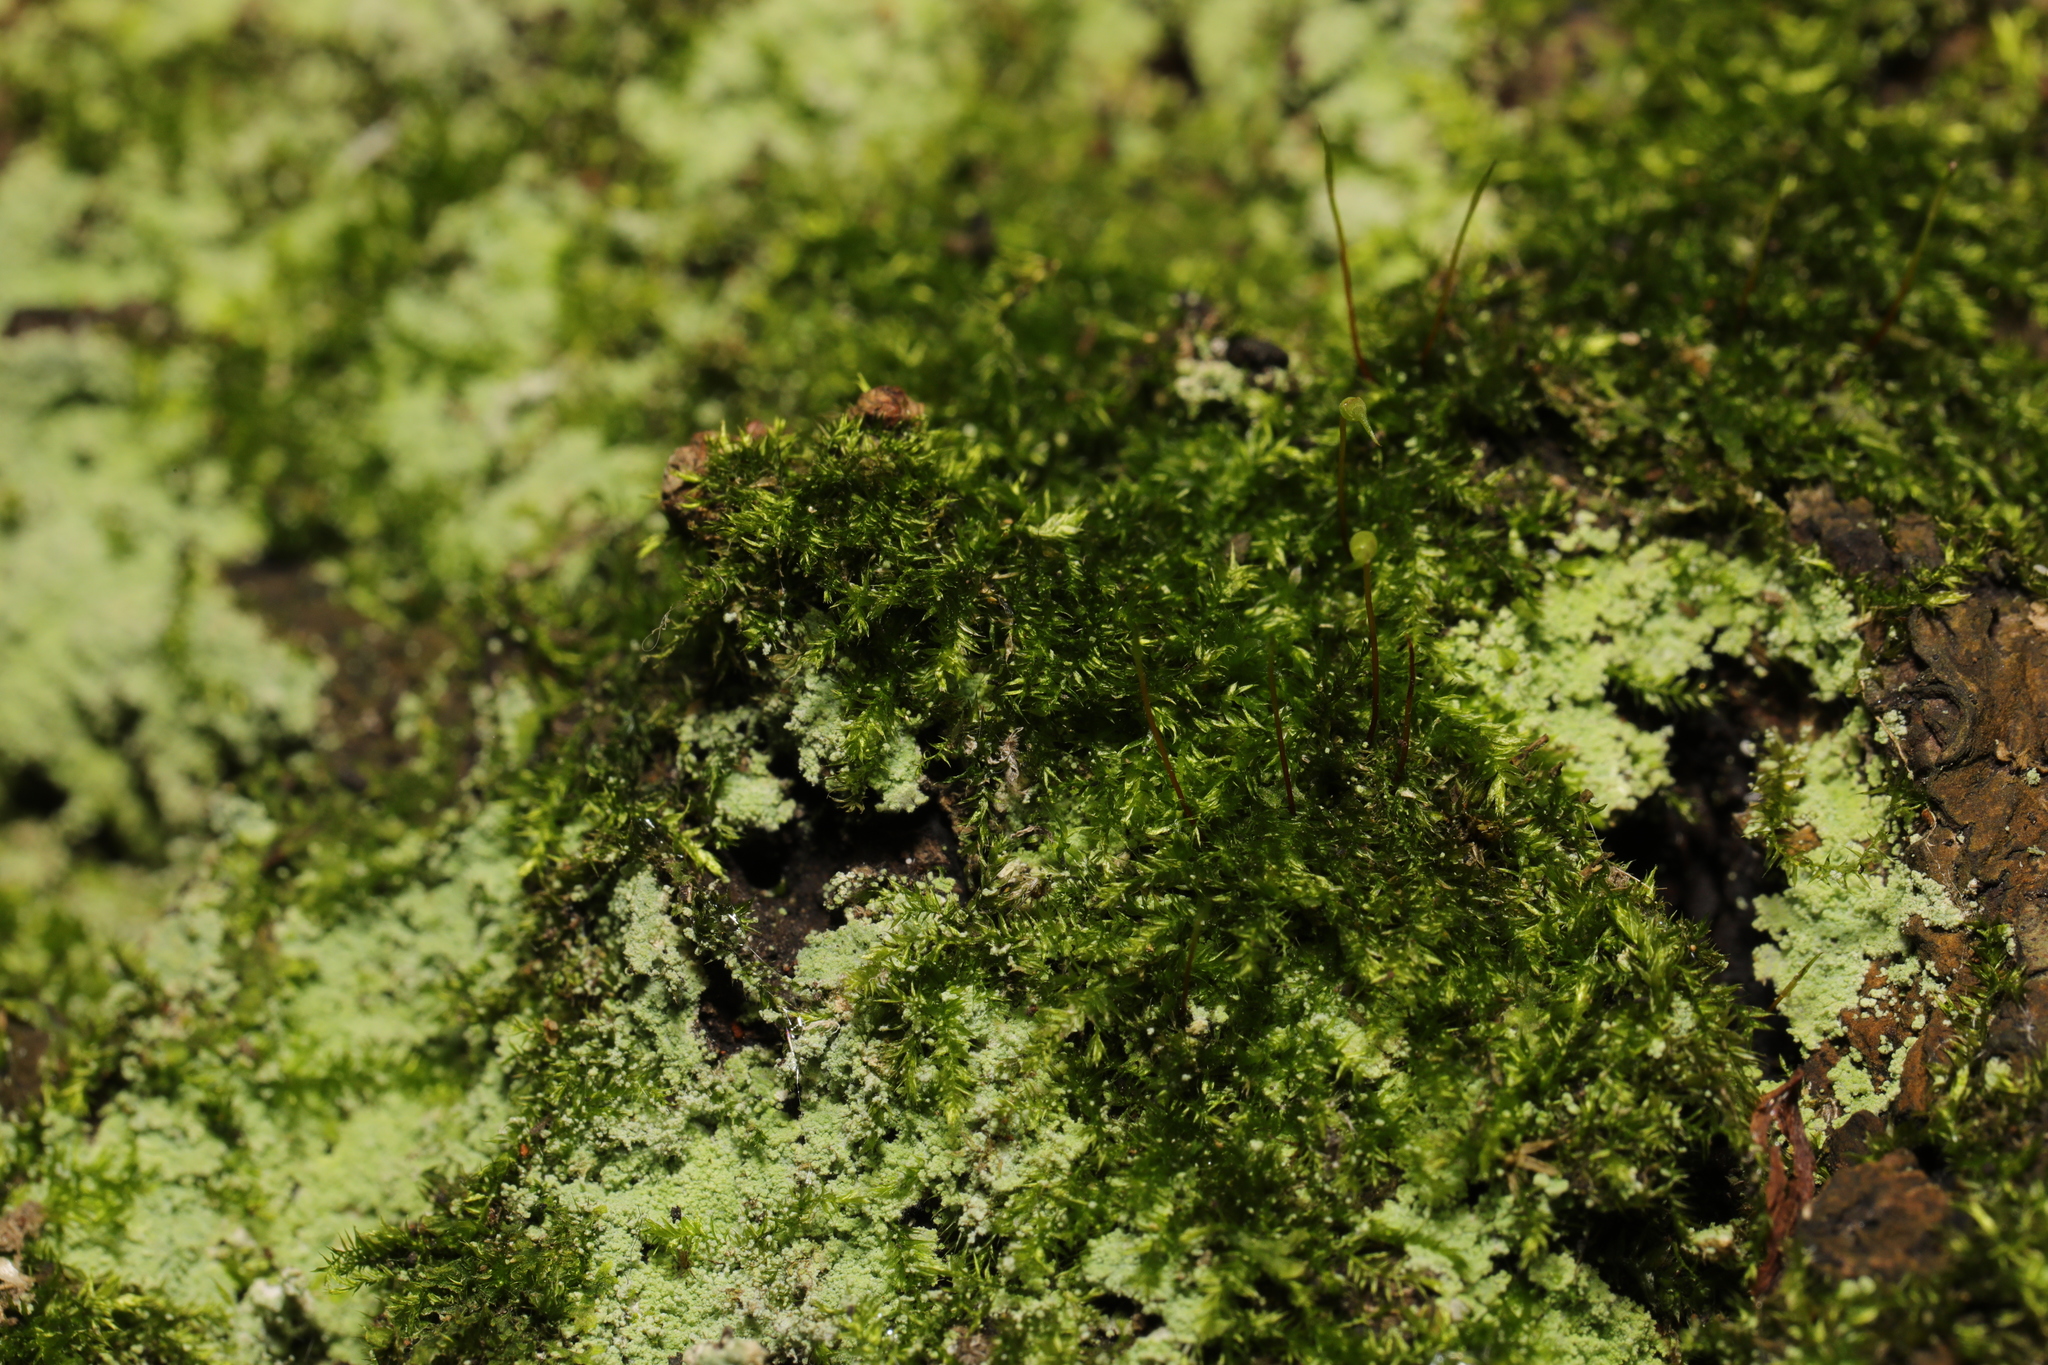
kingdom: Plantae
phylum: Bryophyta
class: Bryopsida
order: Hypnales
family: Brachytheciaceae
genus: Rhynchostegium
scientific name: Rhynchostegium confertum
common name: Clustered feather-moss
